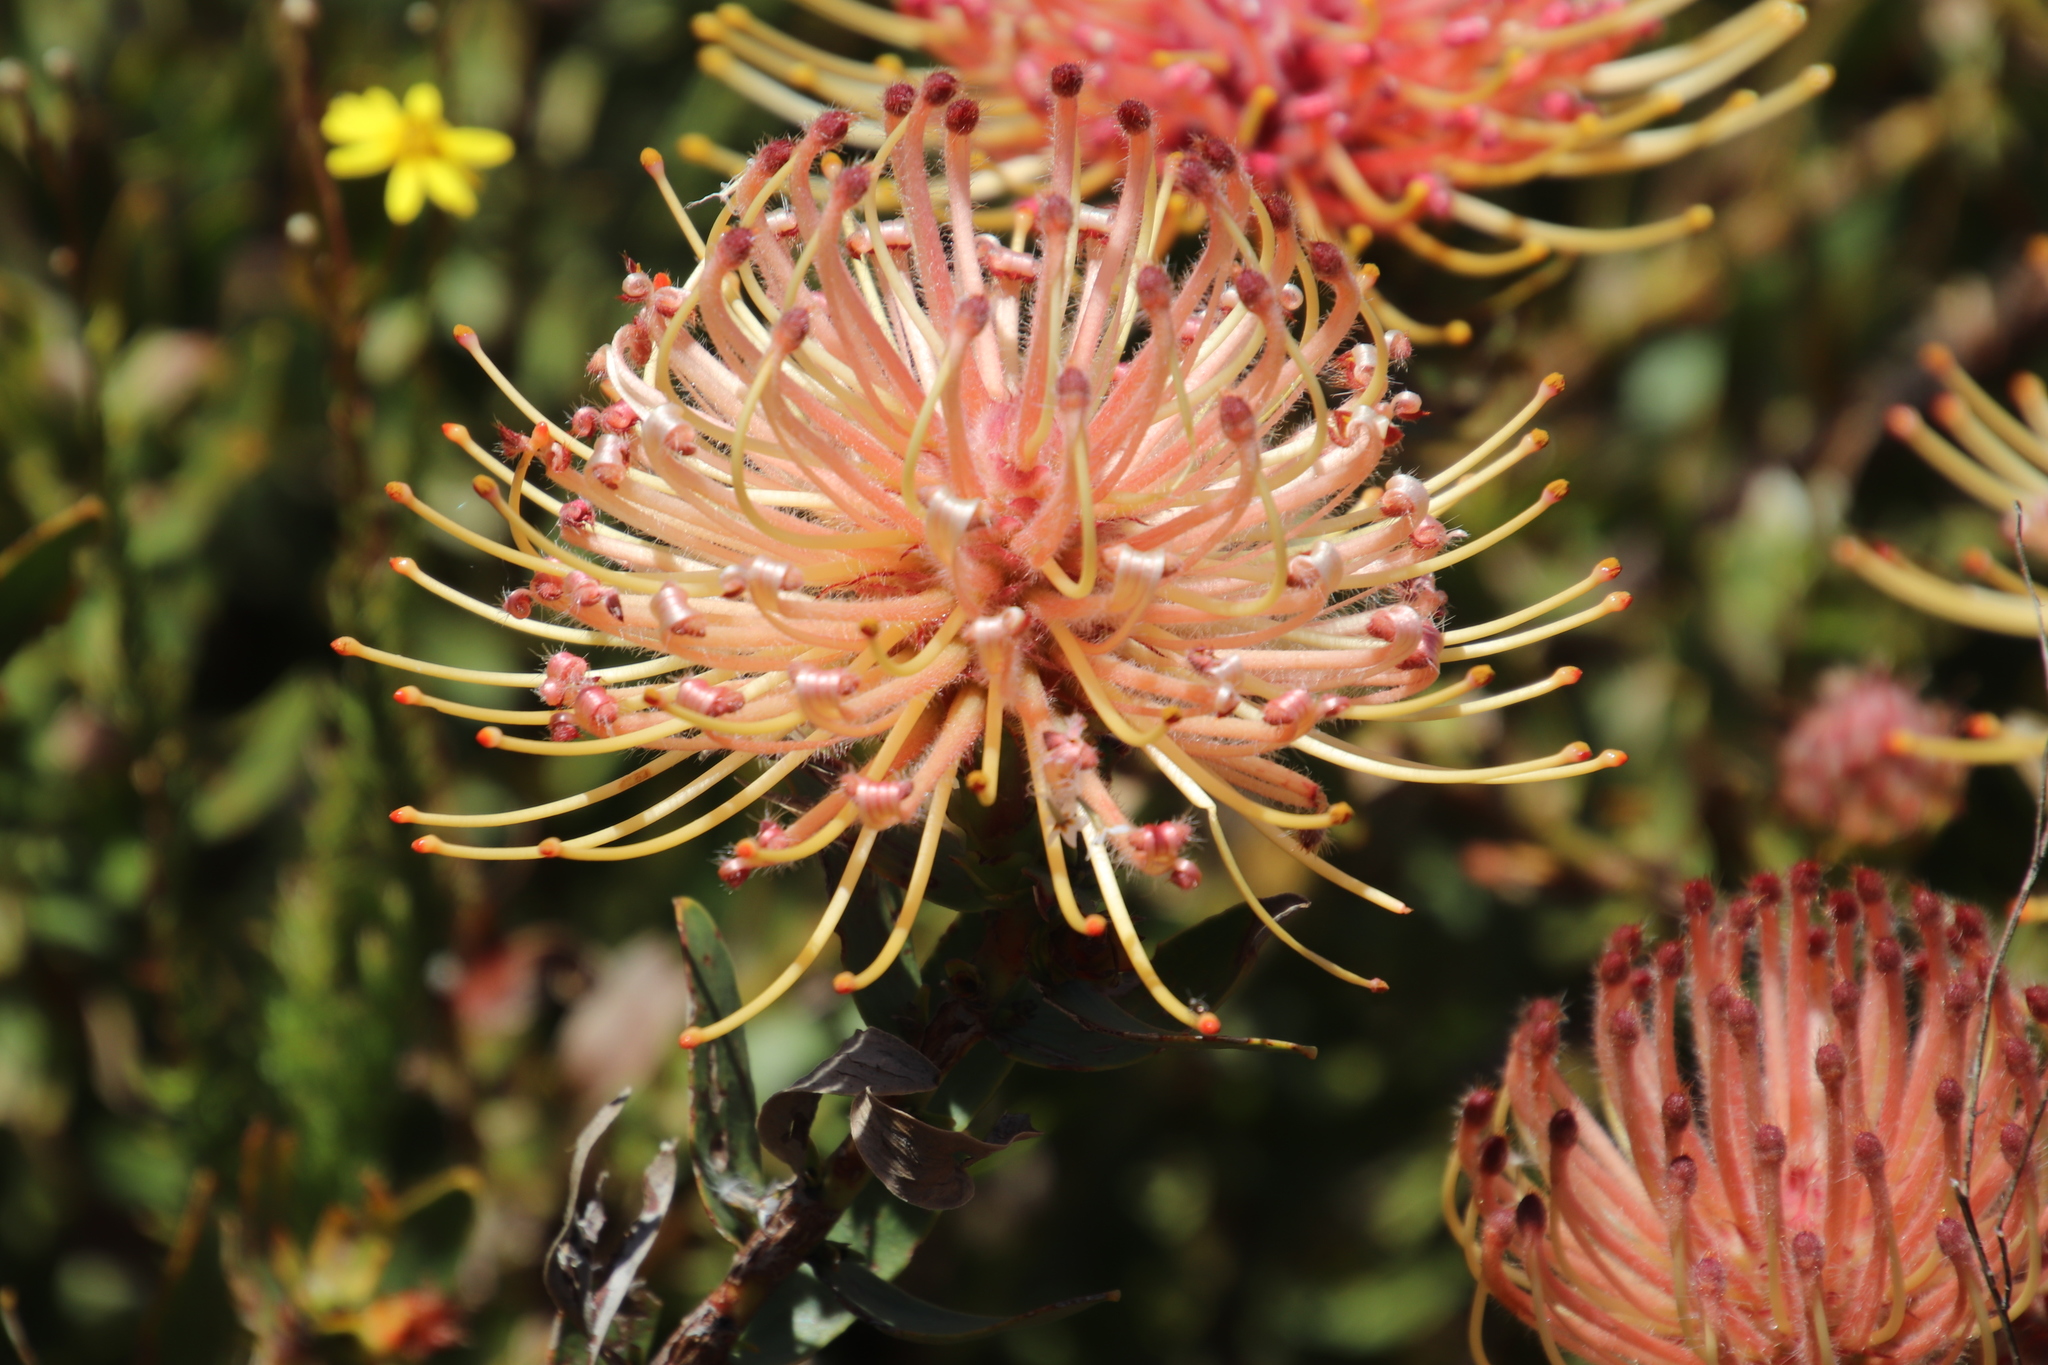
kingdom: Plantae
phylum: Tracheophyta
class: Magnoliopsida
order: Proteales
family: Proteaceae
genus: Leucospermum
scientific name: Leucospermum tottum
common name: Ribbon pincushion
